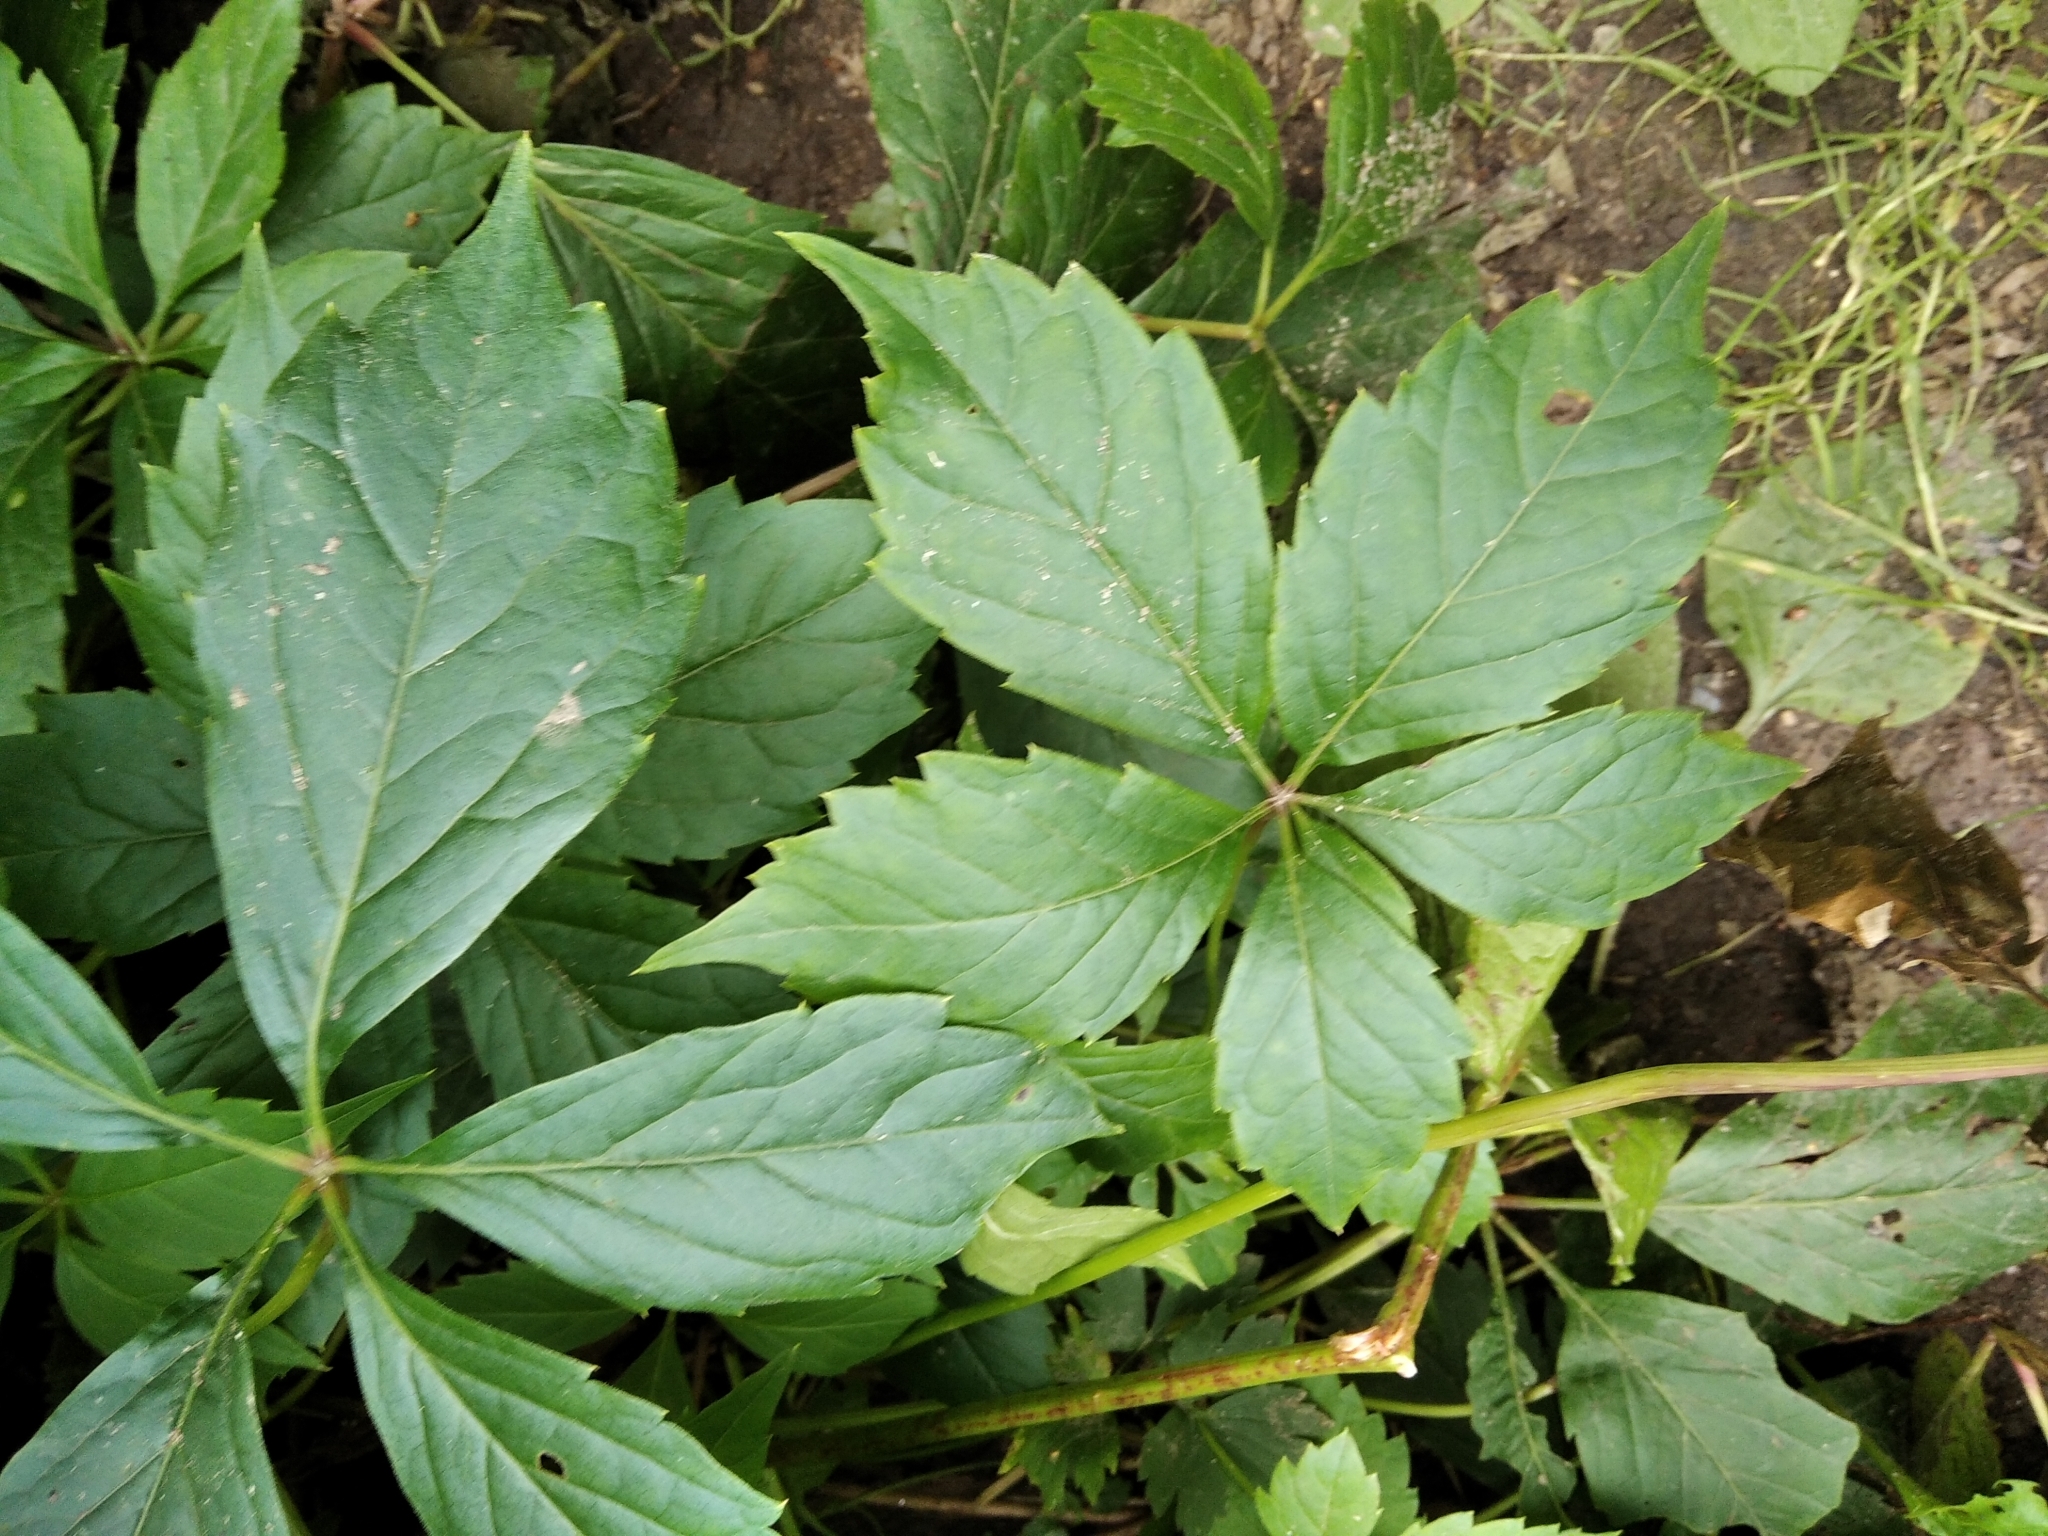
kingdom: Plantae
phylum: Tracheophyta
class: Magnoliopsida
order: Vitales
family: Vitaceae
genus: Parthenocissus
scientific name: Parthenocissus inserta
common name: False virginia-creeper
